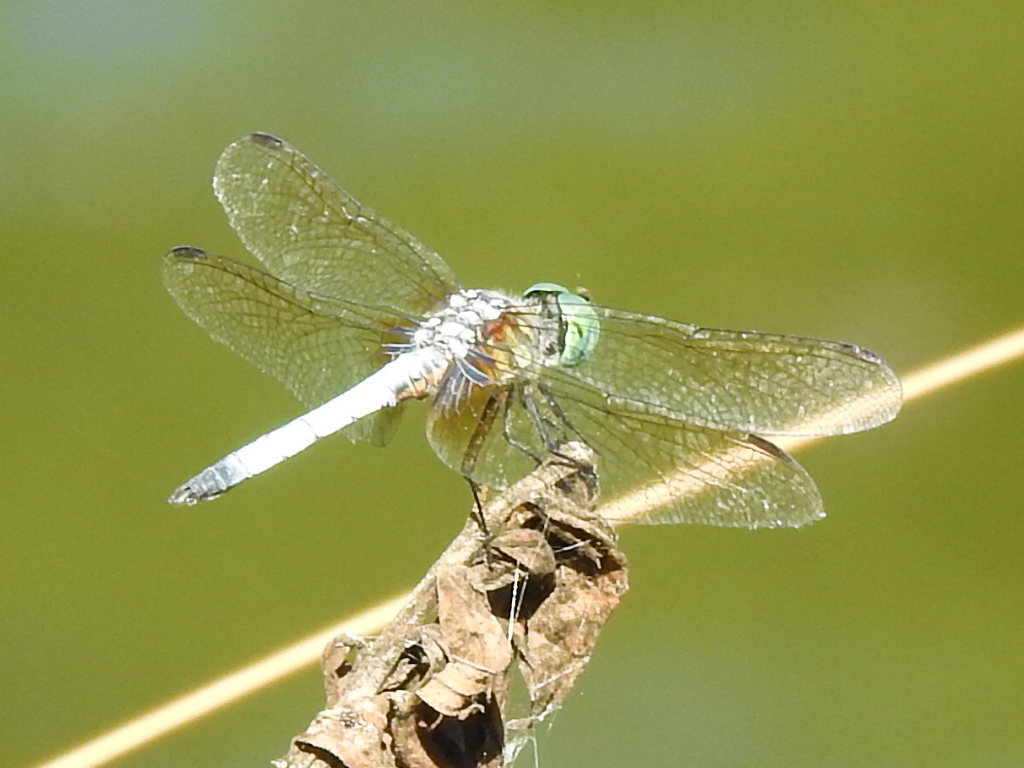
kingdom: Animalia
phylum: Arthropoda
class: Insecta
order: Odonata
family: Libellulidae
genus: Pachydiplax
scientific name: Pachydiplax longipennis
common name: Blue dasher
